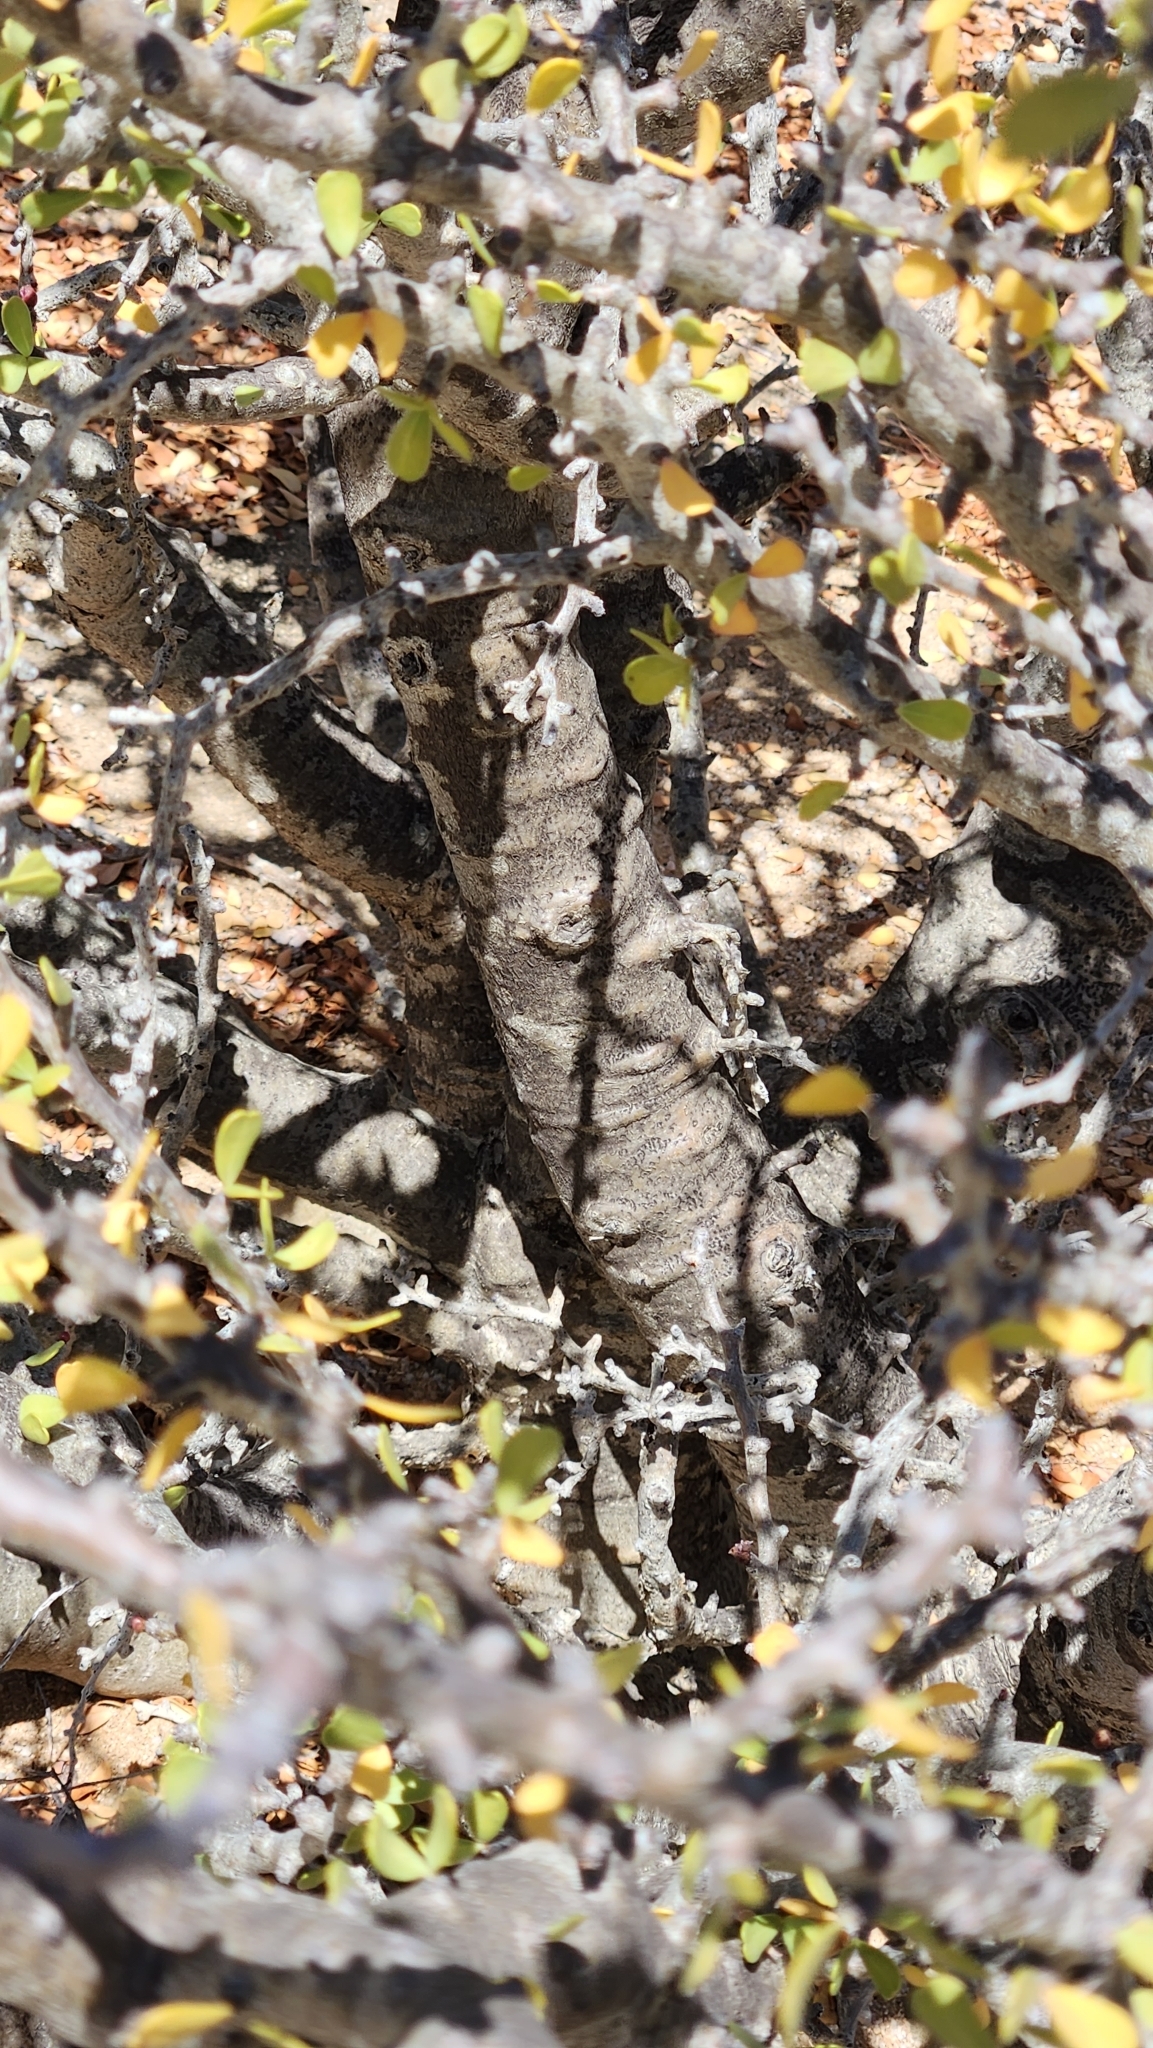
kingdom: Plantae
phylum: Tracheophyta
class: Magnoliopsida
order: Malpighiales
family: Euphorbiaceae
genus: Jatropha
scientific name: Jatropha cuneata
